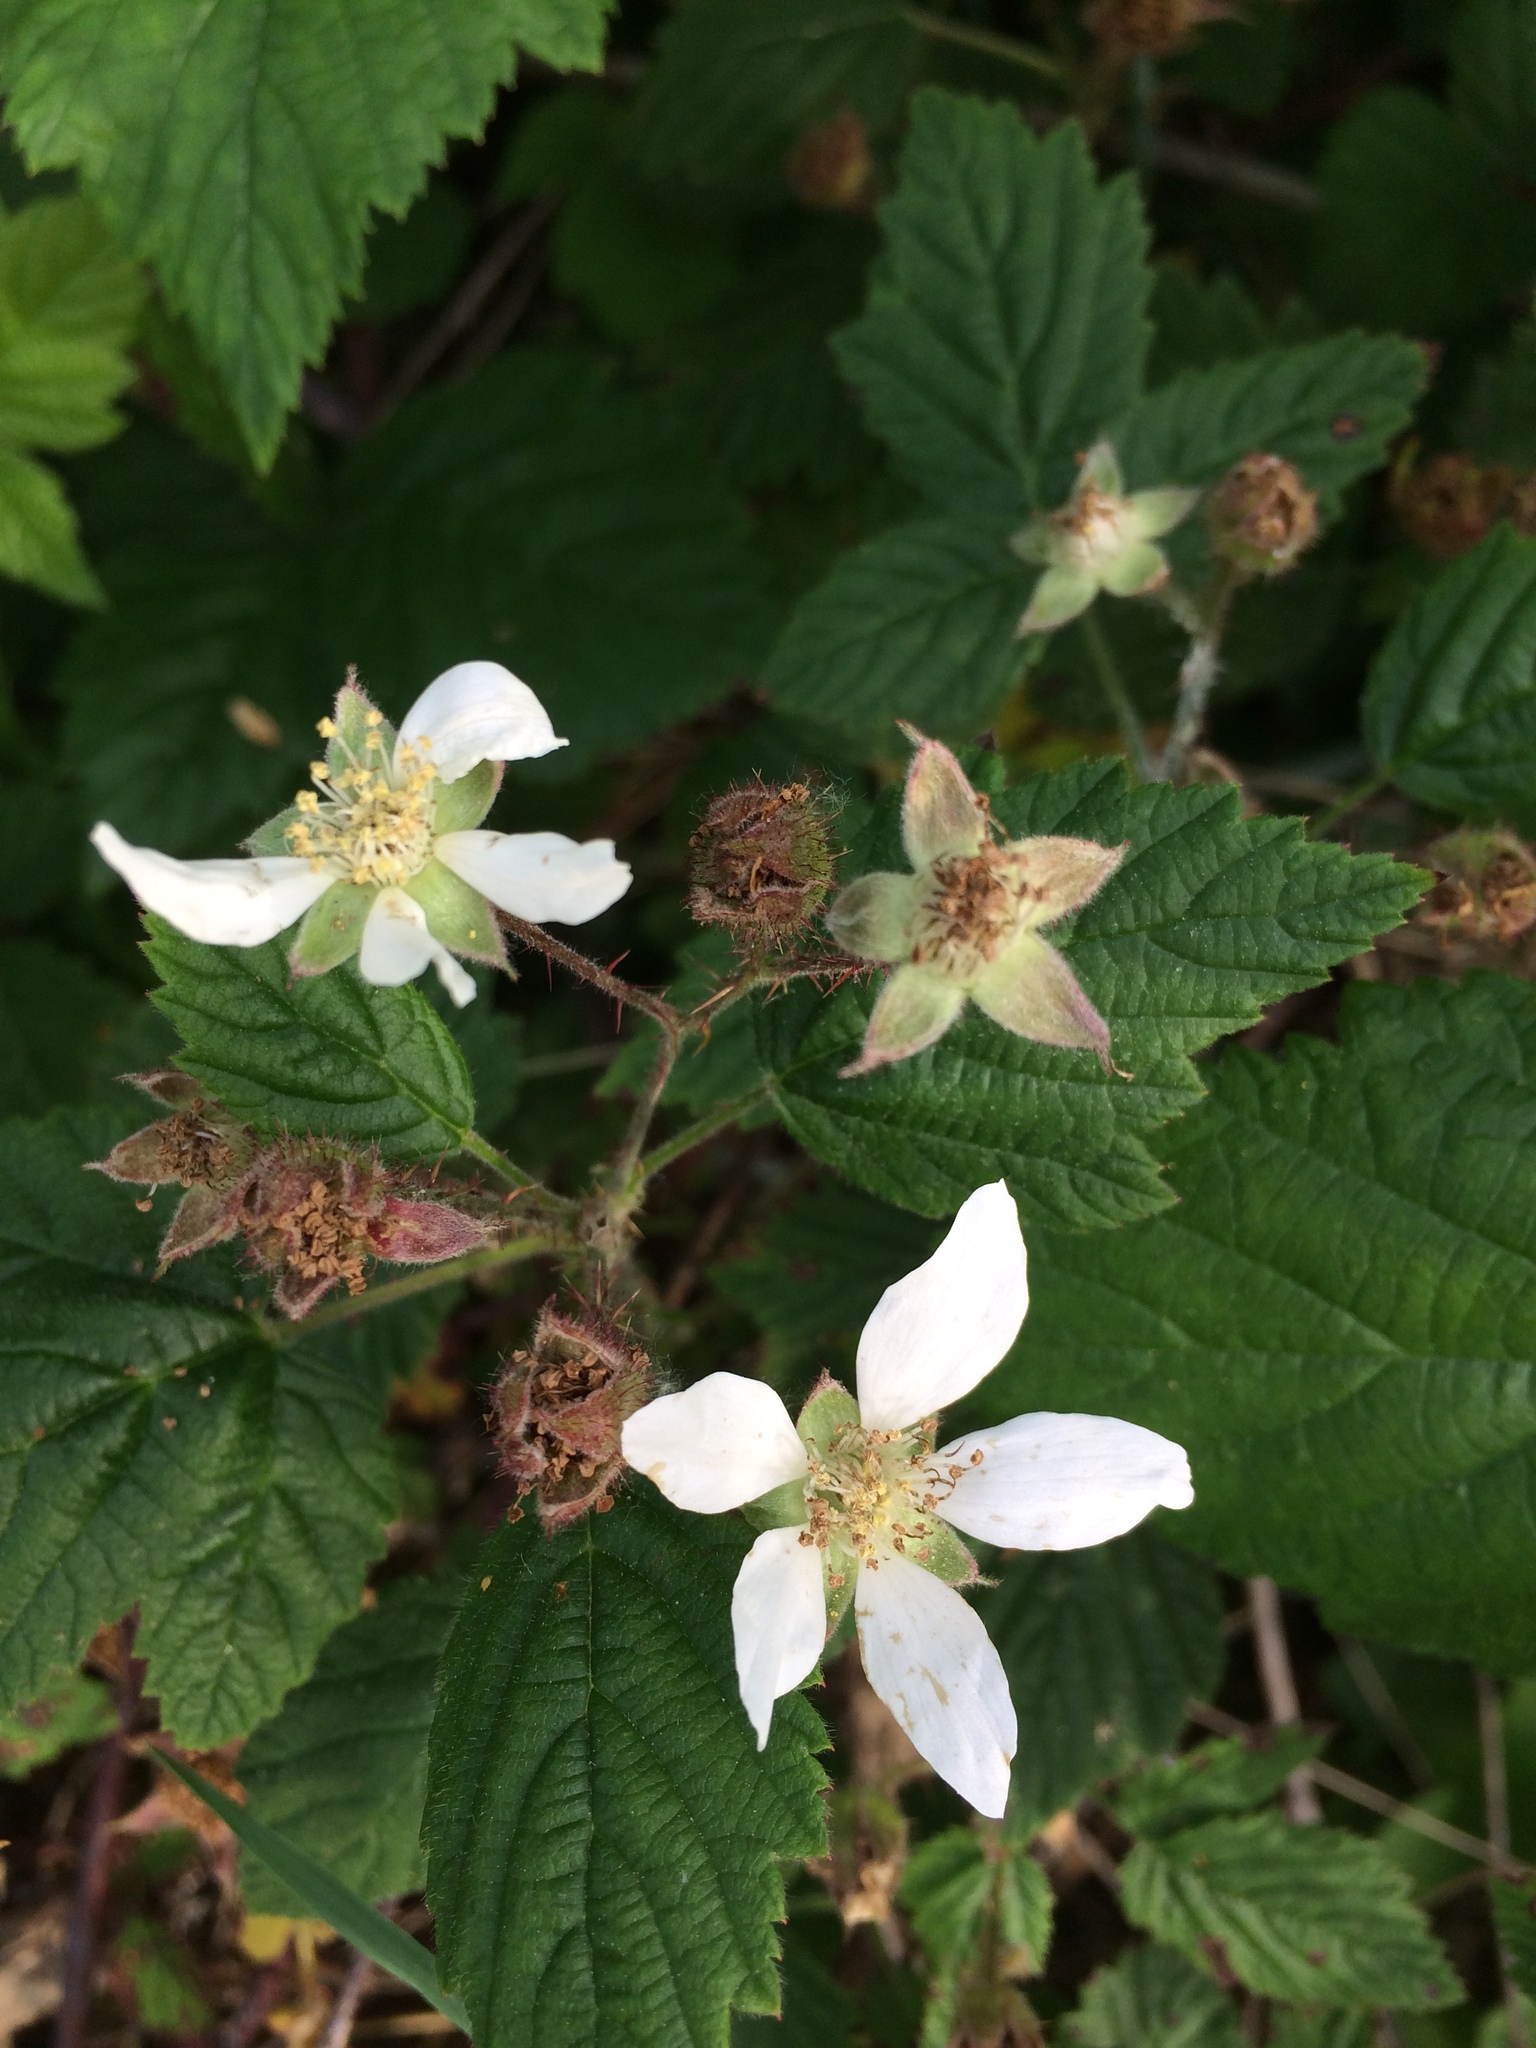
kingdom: Plantae
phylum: Tracheophyta
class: Magnoliopsida
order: Rosales
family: Rosaceae
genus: Rubus
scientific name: Rubus ursinus
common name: Pacific blackberry
